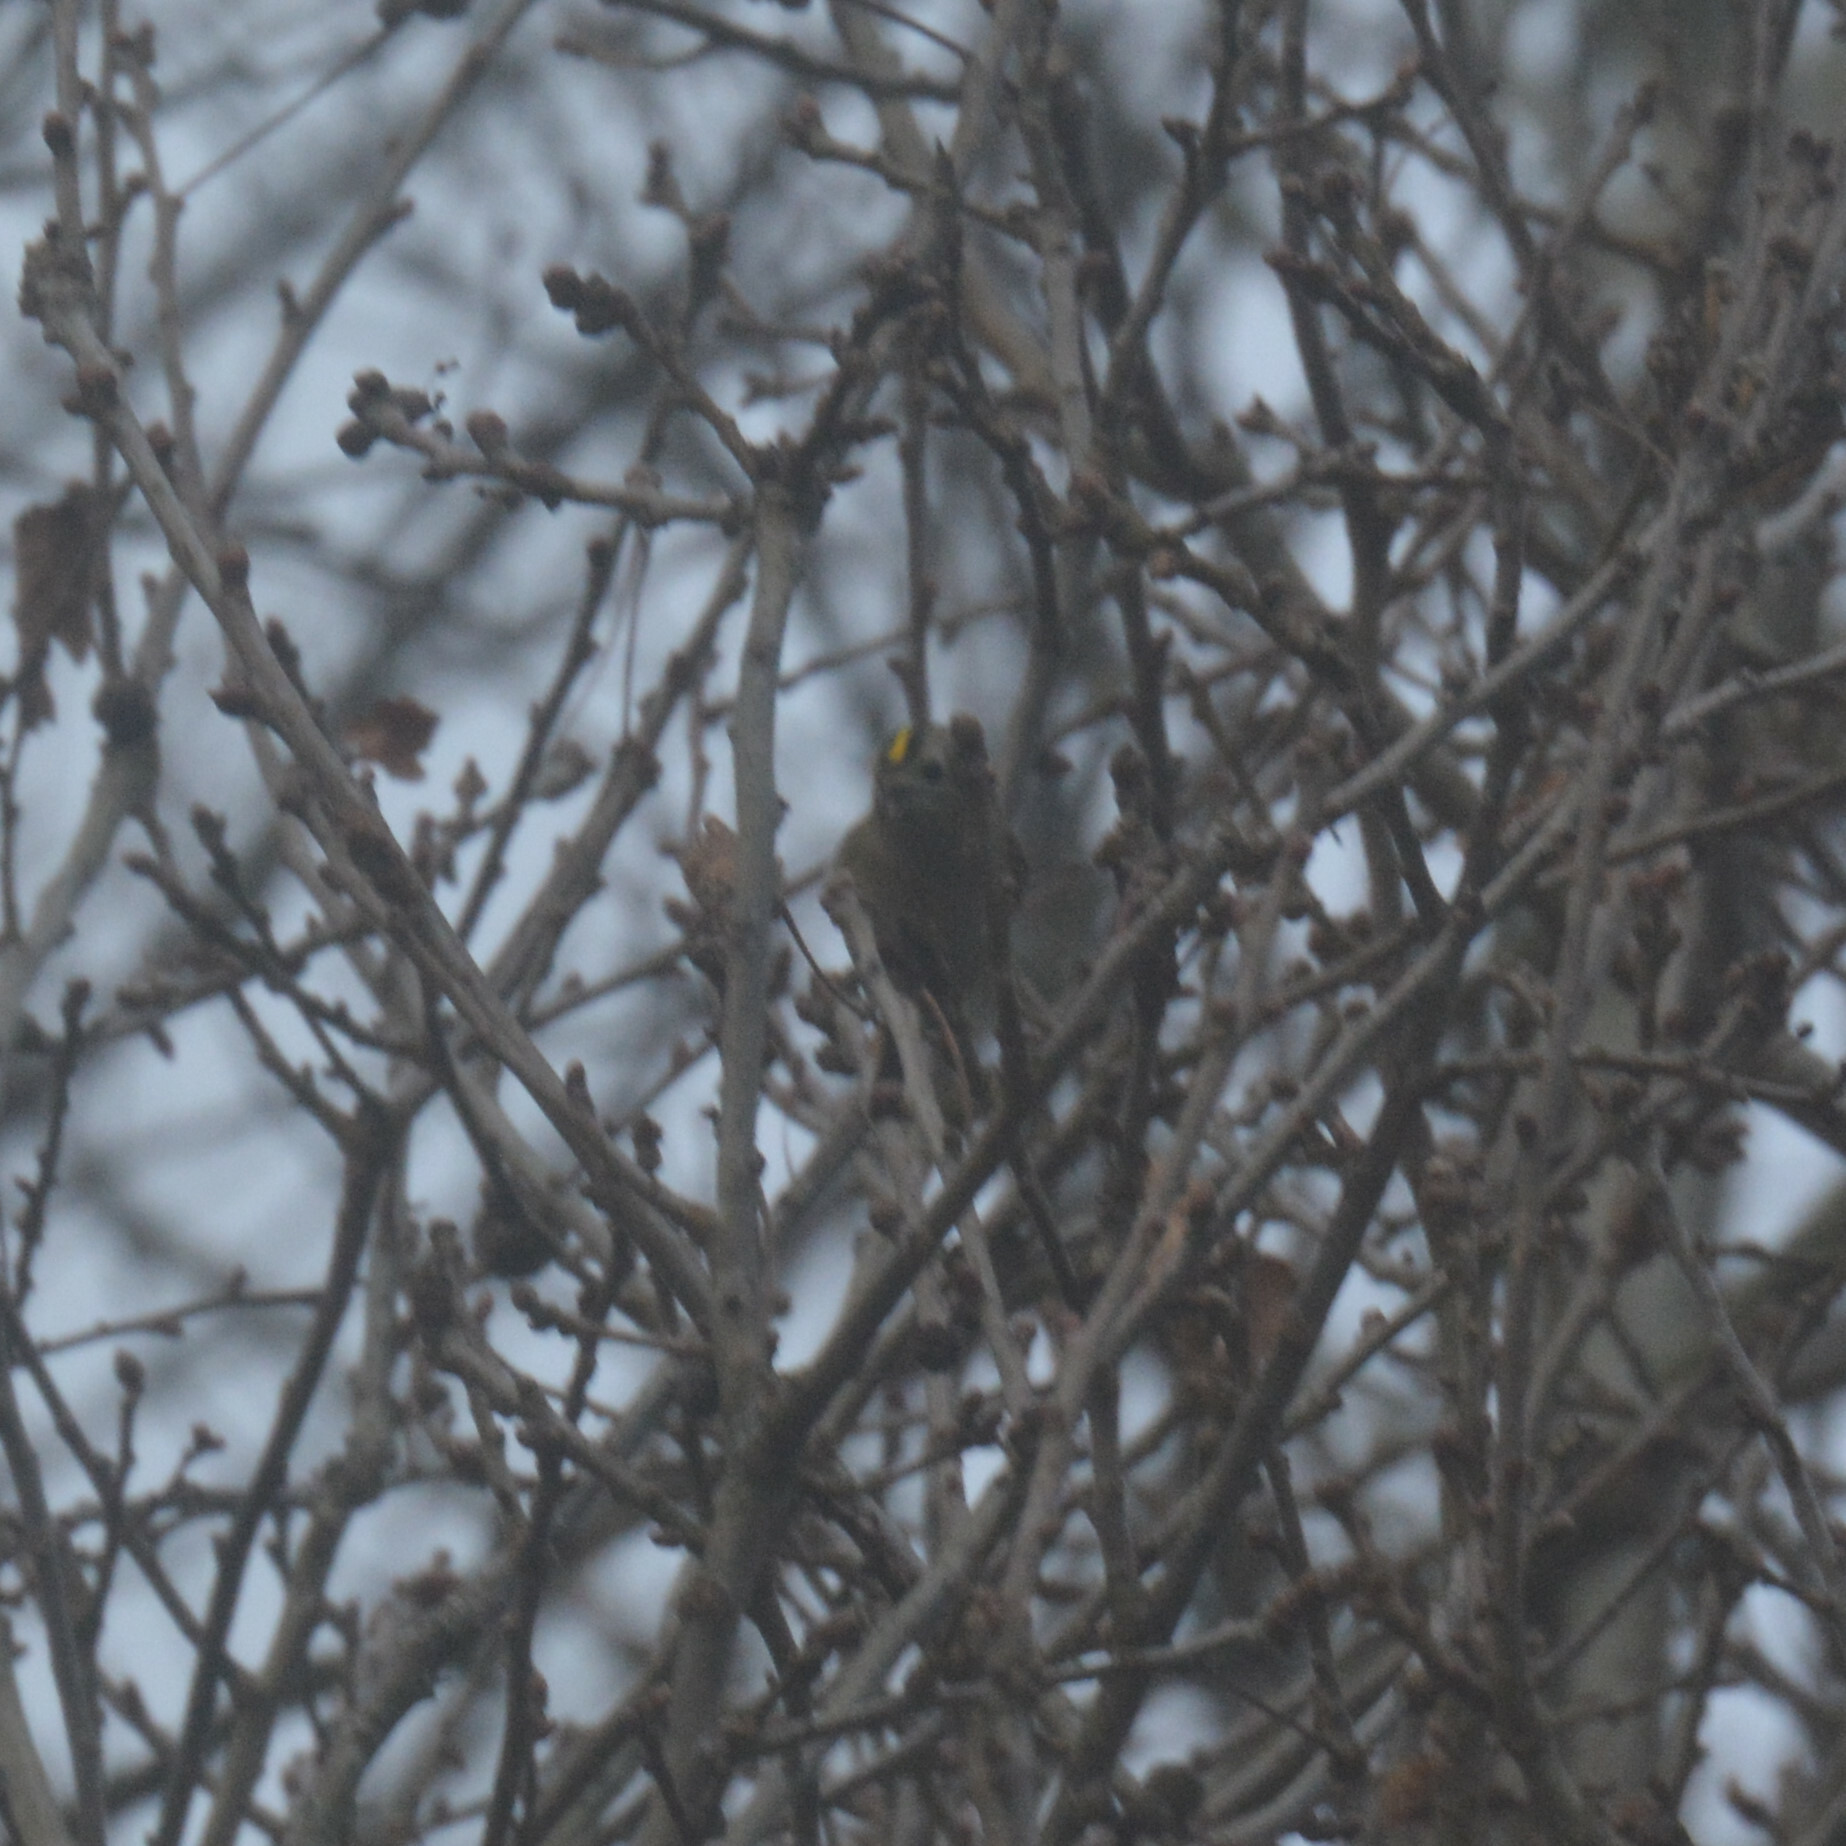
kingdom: Animalia
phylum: Chordata
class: Aves
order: Passeriformes
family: Regulidae
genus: Regulus
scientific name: Regulus regulus
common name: Goldcrest
